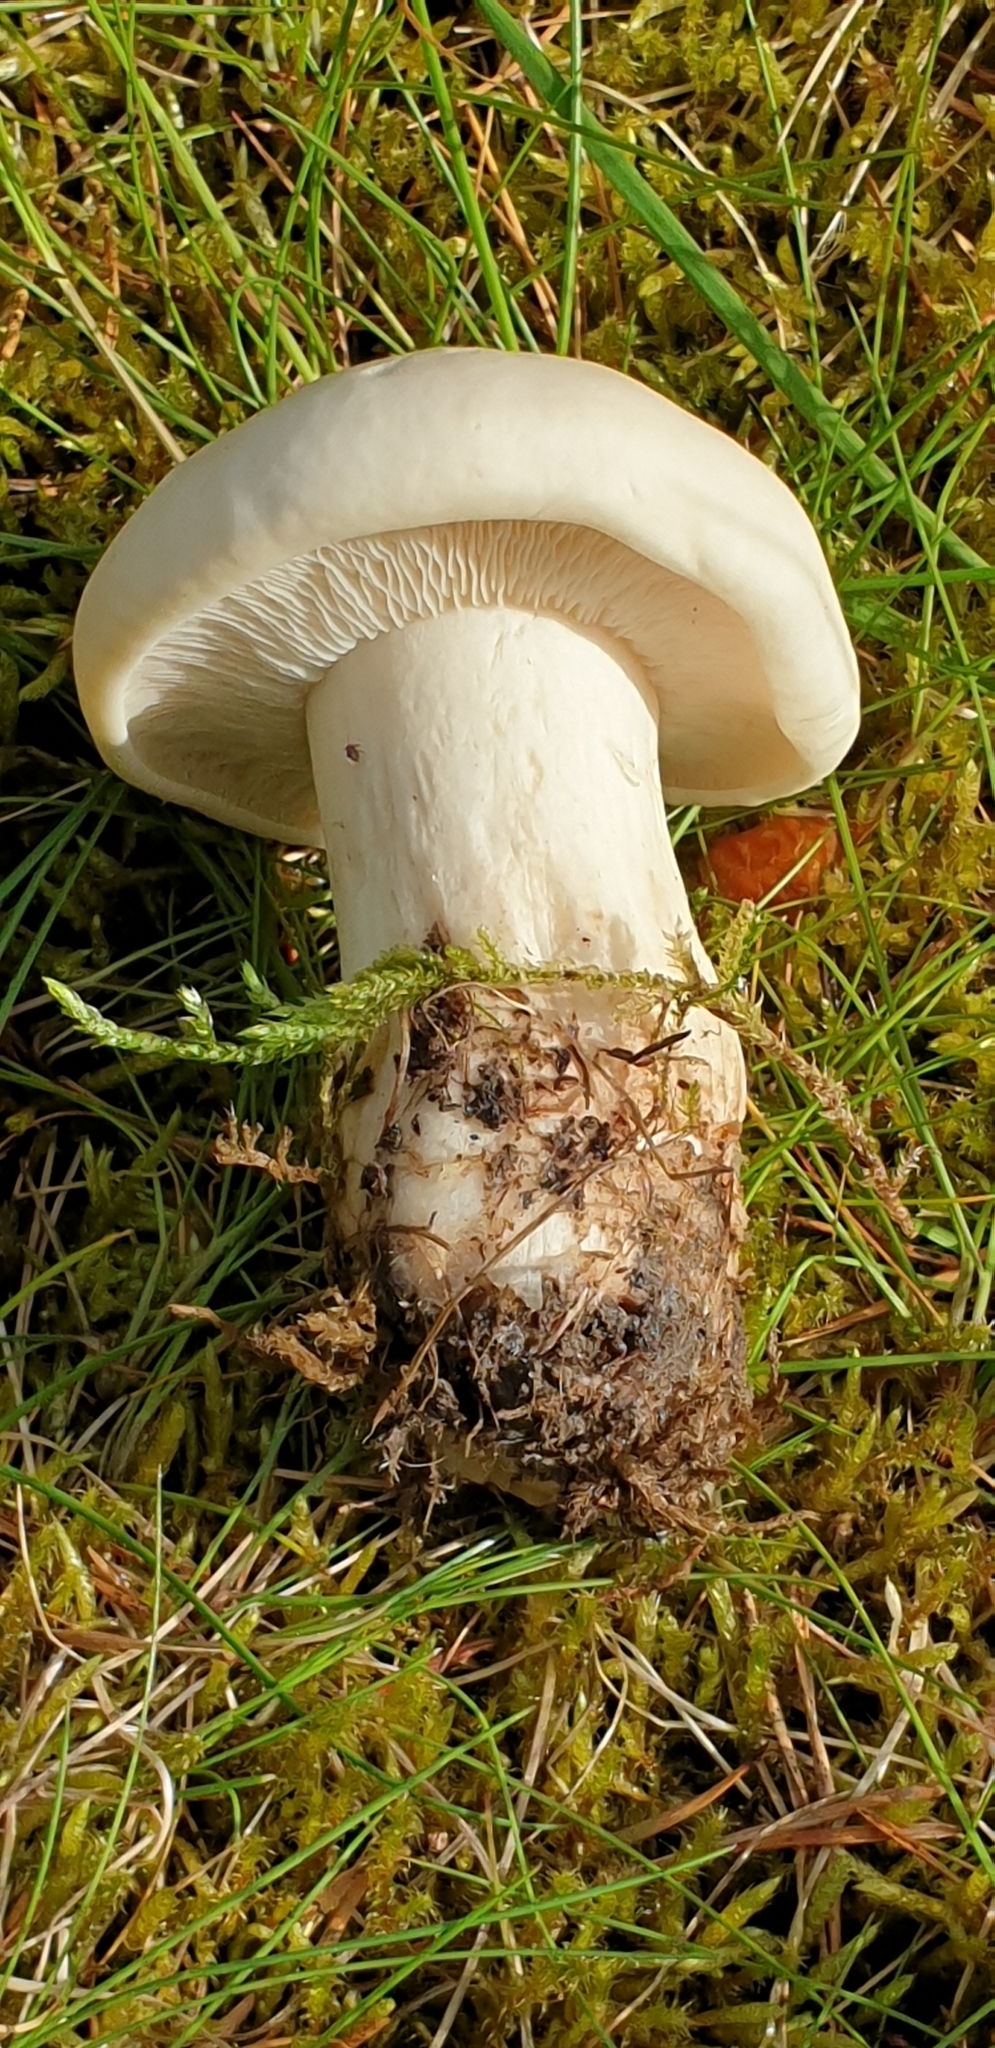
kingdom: Fungi
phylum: Basidiomycota
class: Agaricomycetes
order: Agaricales
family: Lyophyllaceae
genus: Calocybe
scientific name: Calocybe gambosa
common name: St. george's mushroom
